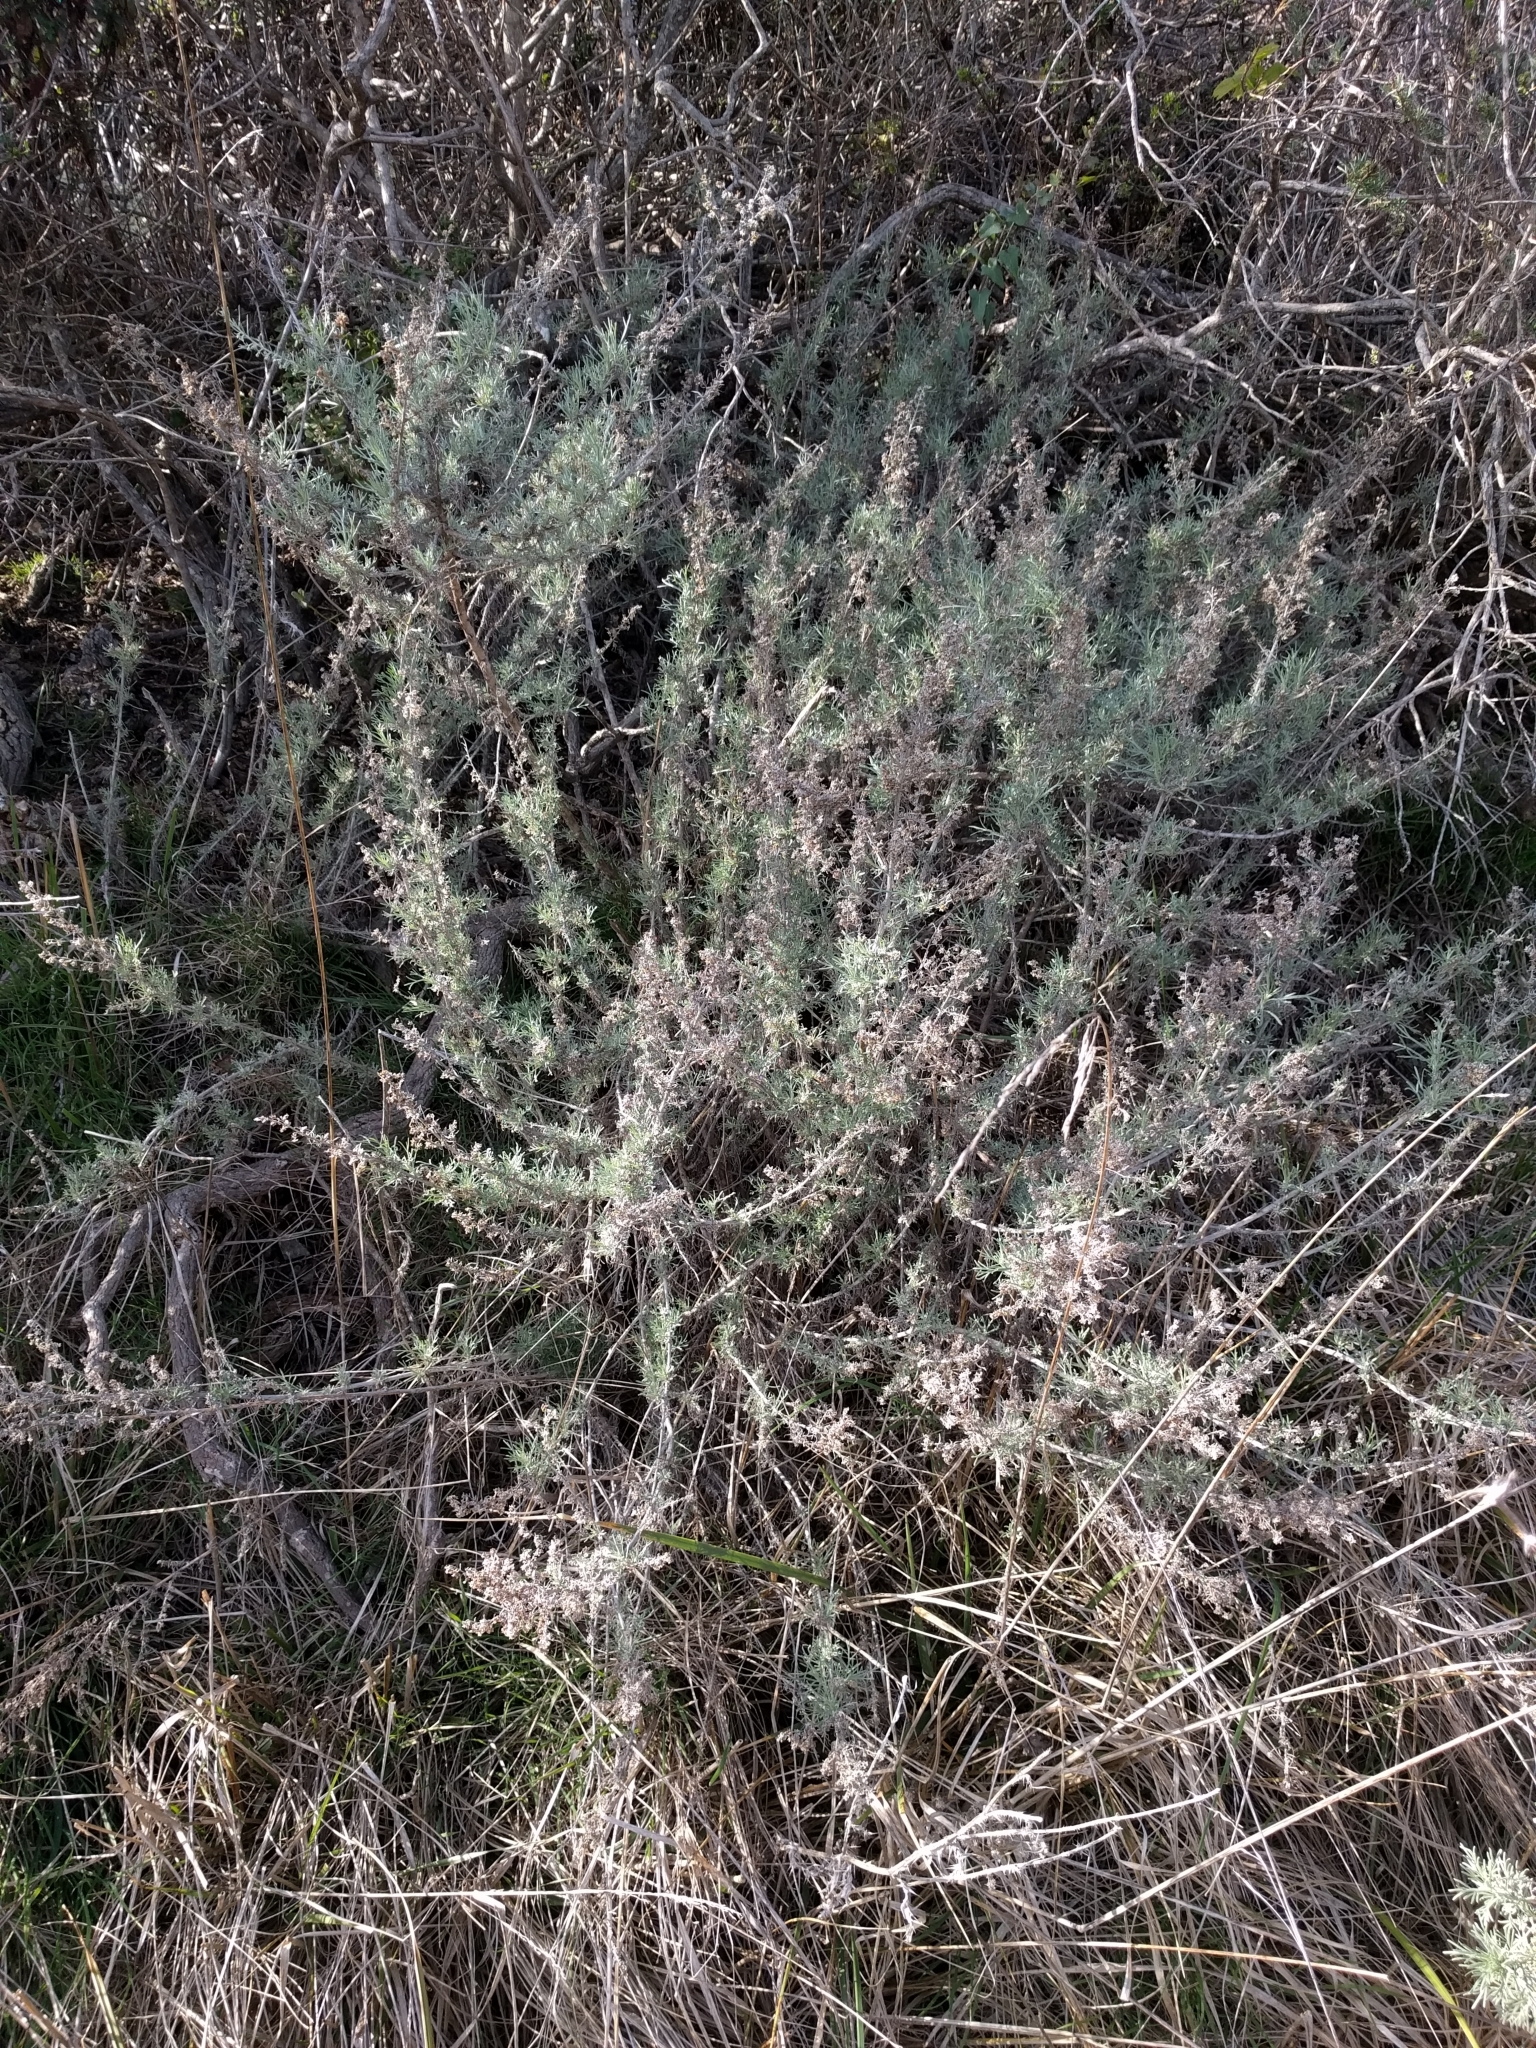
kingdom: Plantae
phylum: Tracheophyta
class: Magnoliopsida
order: Asterales
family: Asteraceae
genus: Artemisia
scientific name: Artemisia californica
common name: California sagebrush
